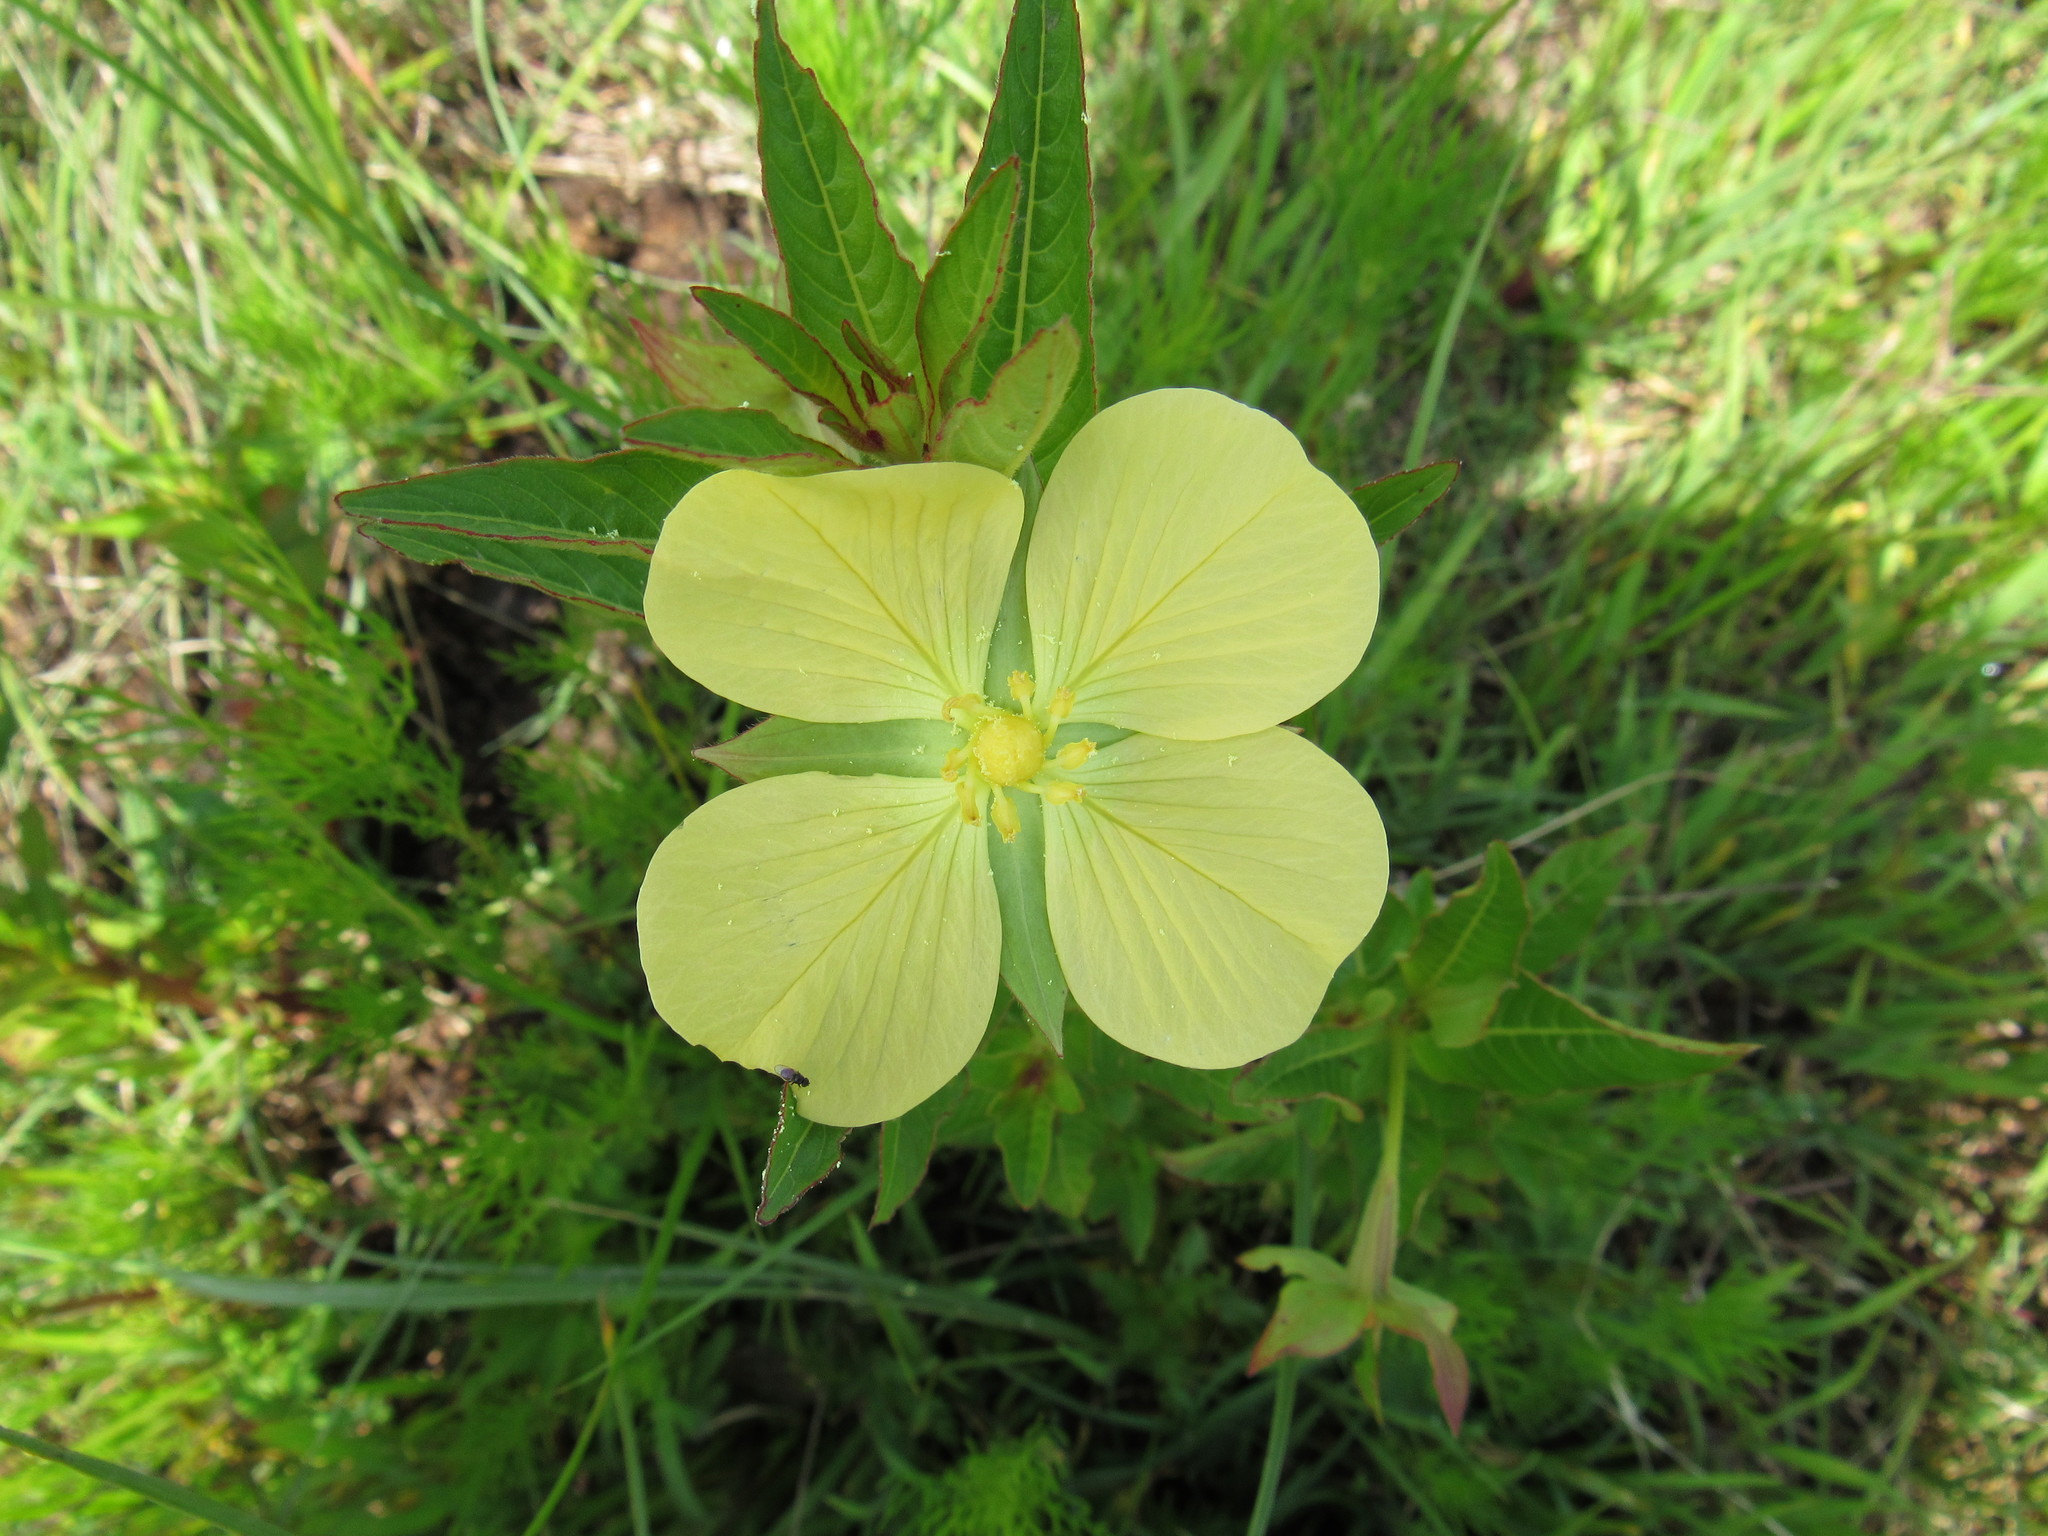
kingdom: Plantae
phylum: Tracheophyta
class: Magnoliopsida
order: Myrtales
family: Onagraceae
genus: Ludwigia
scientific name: Ludwigia octovalvis
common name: Water-primrose
